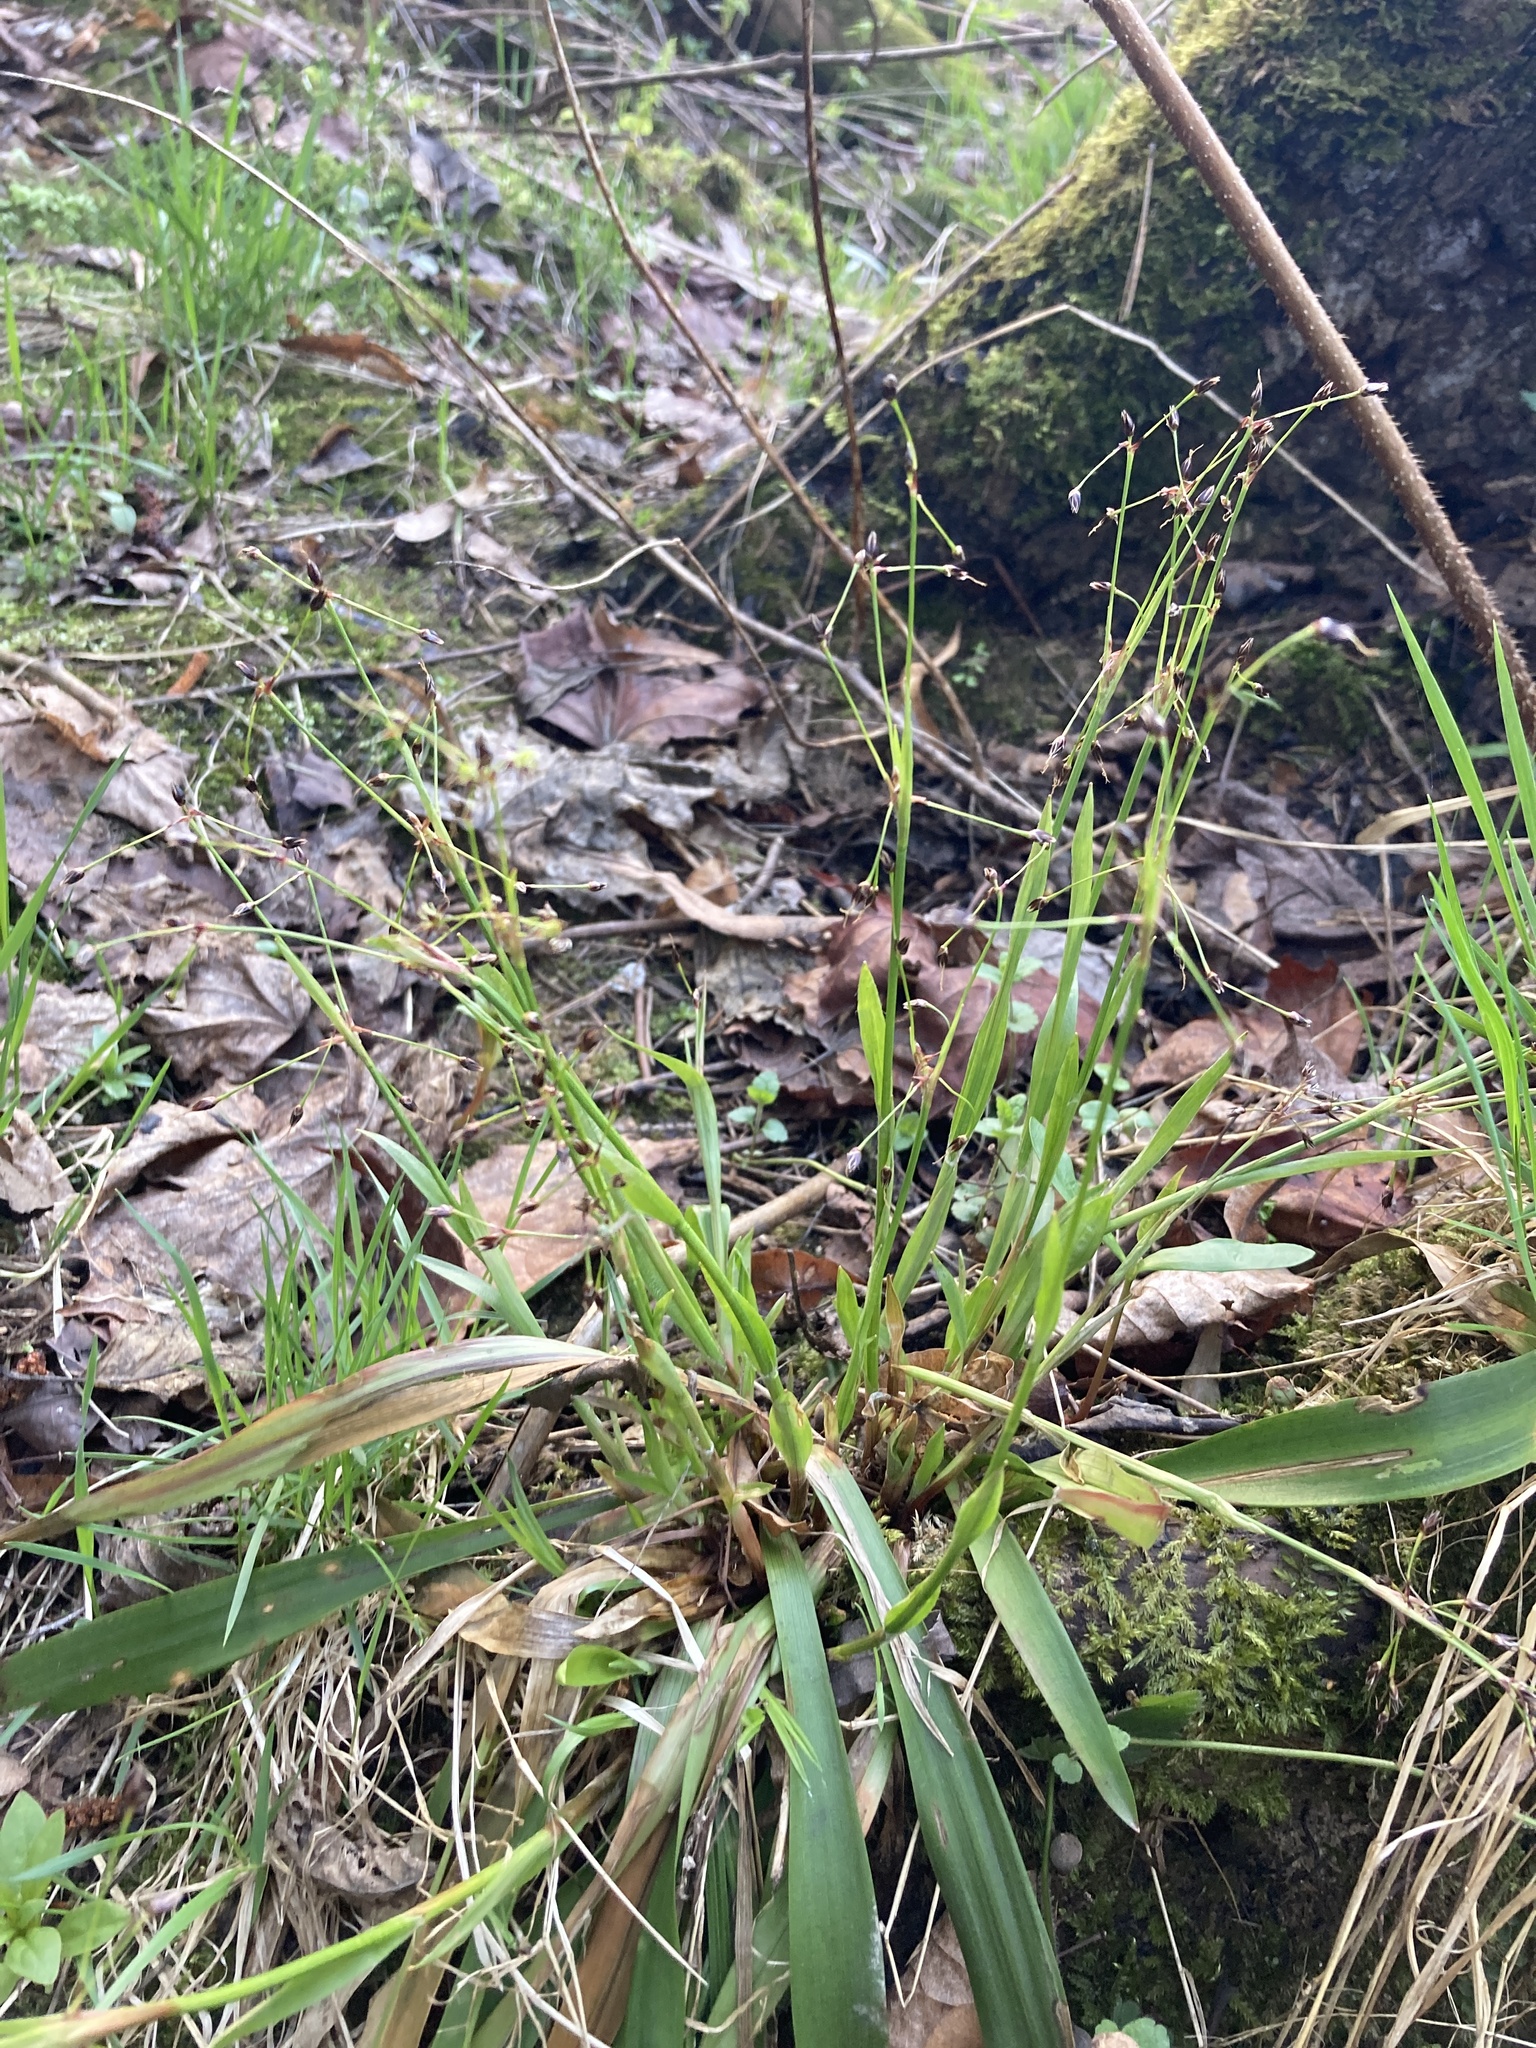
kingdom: Plantae
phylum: Tracheophyta
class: Liliopsida
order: Poales
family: Juncaceae
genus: Luzula
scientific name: Luzula pilosa
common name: Hairy wood-rush
